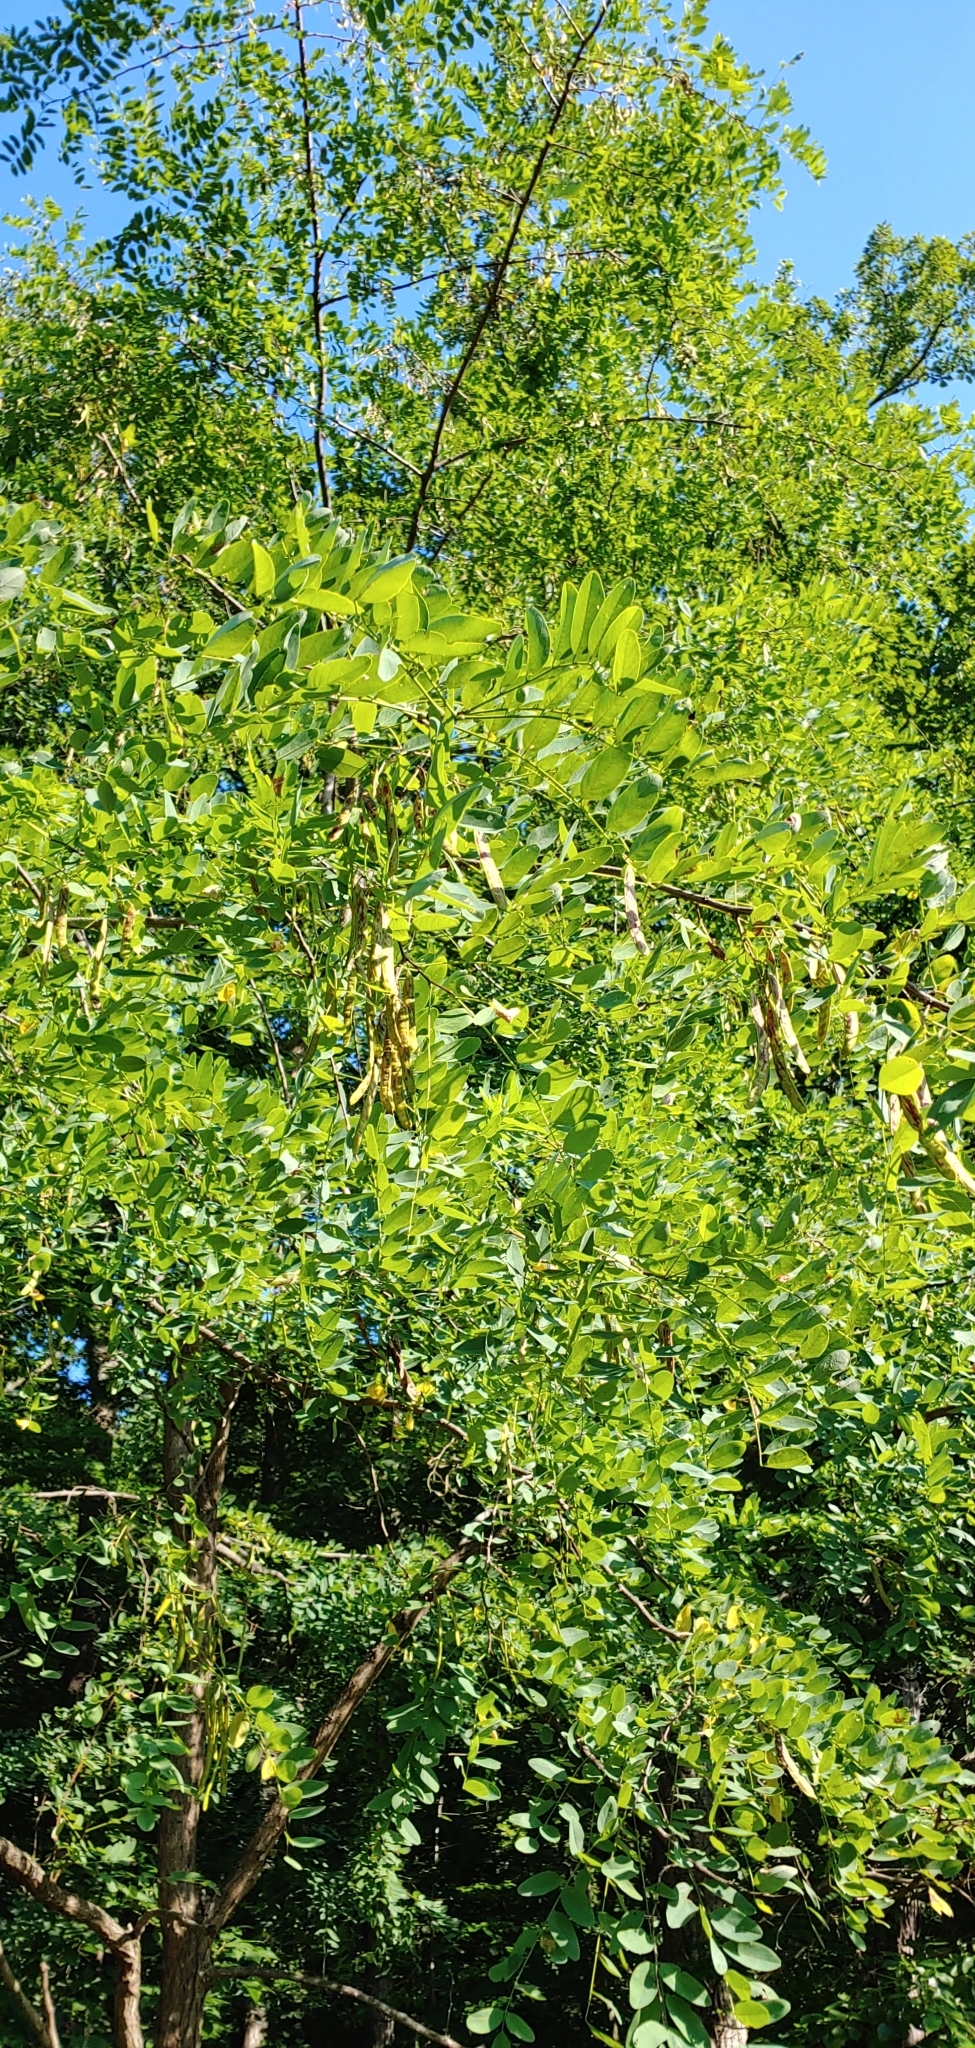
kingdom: Plantae
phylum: Tracheophyta
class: Magnoliopsida
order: Fabales
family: Fabaceae
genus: Robinia
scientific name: Robinia pseudoacacia
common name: Black locust
